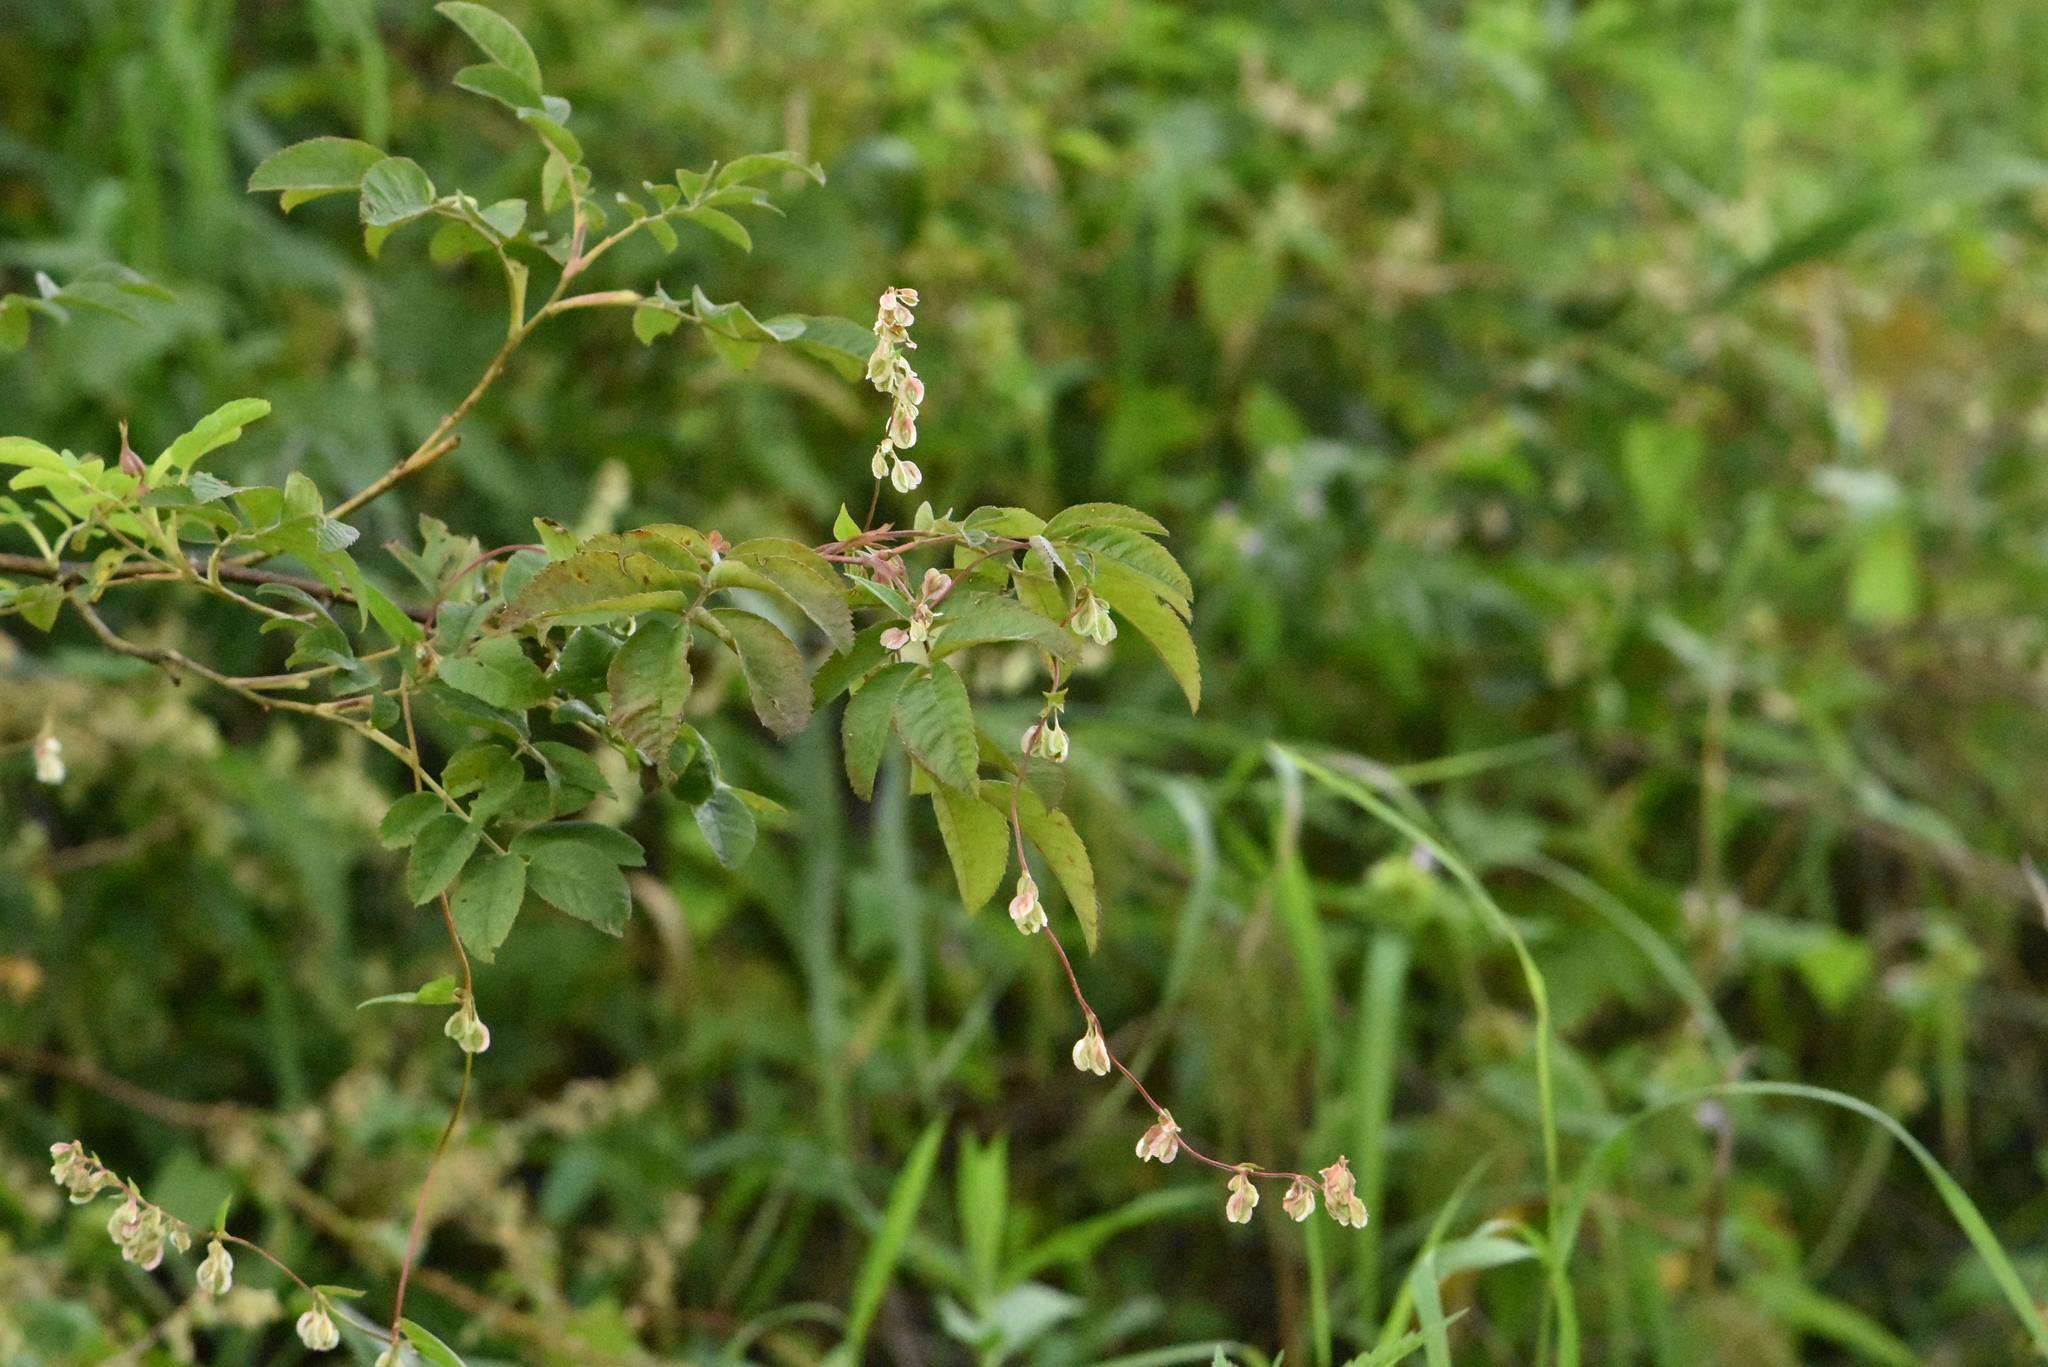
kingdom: Plantae
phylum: Tracheophyta
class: Magnoliopsida
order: Caryophyllales
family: Polygonaceae
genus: Fallopia
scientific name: Fallopia dumetorum
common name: Copse-bindweed
